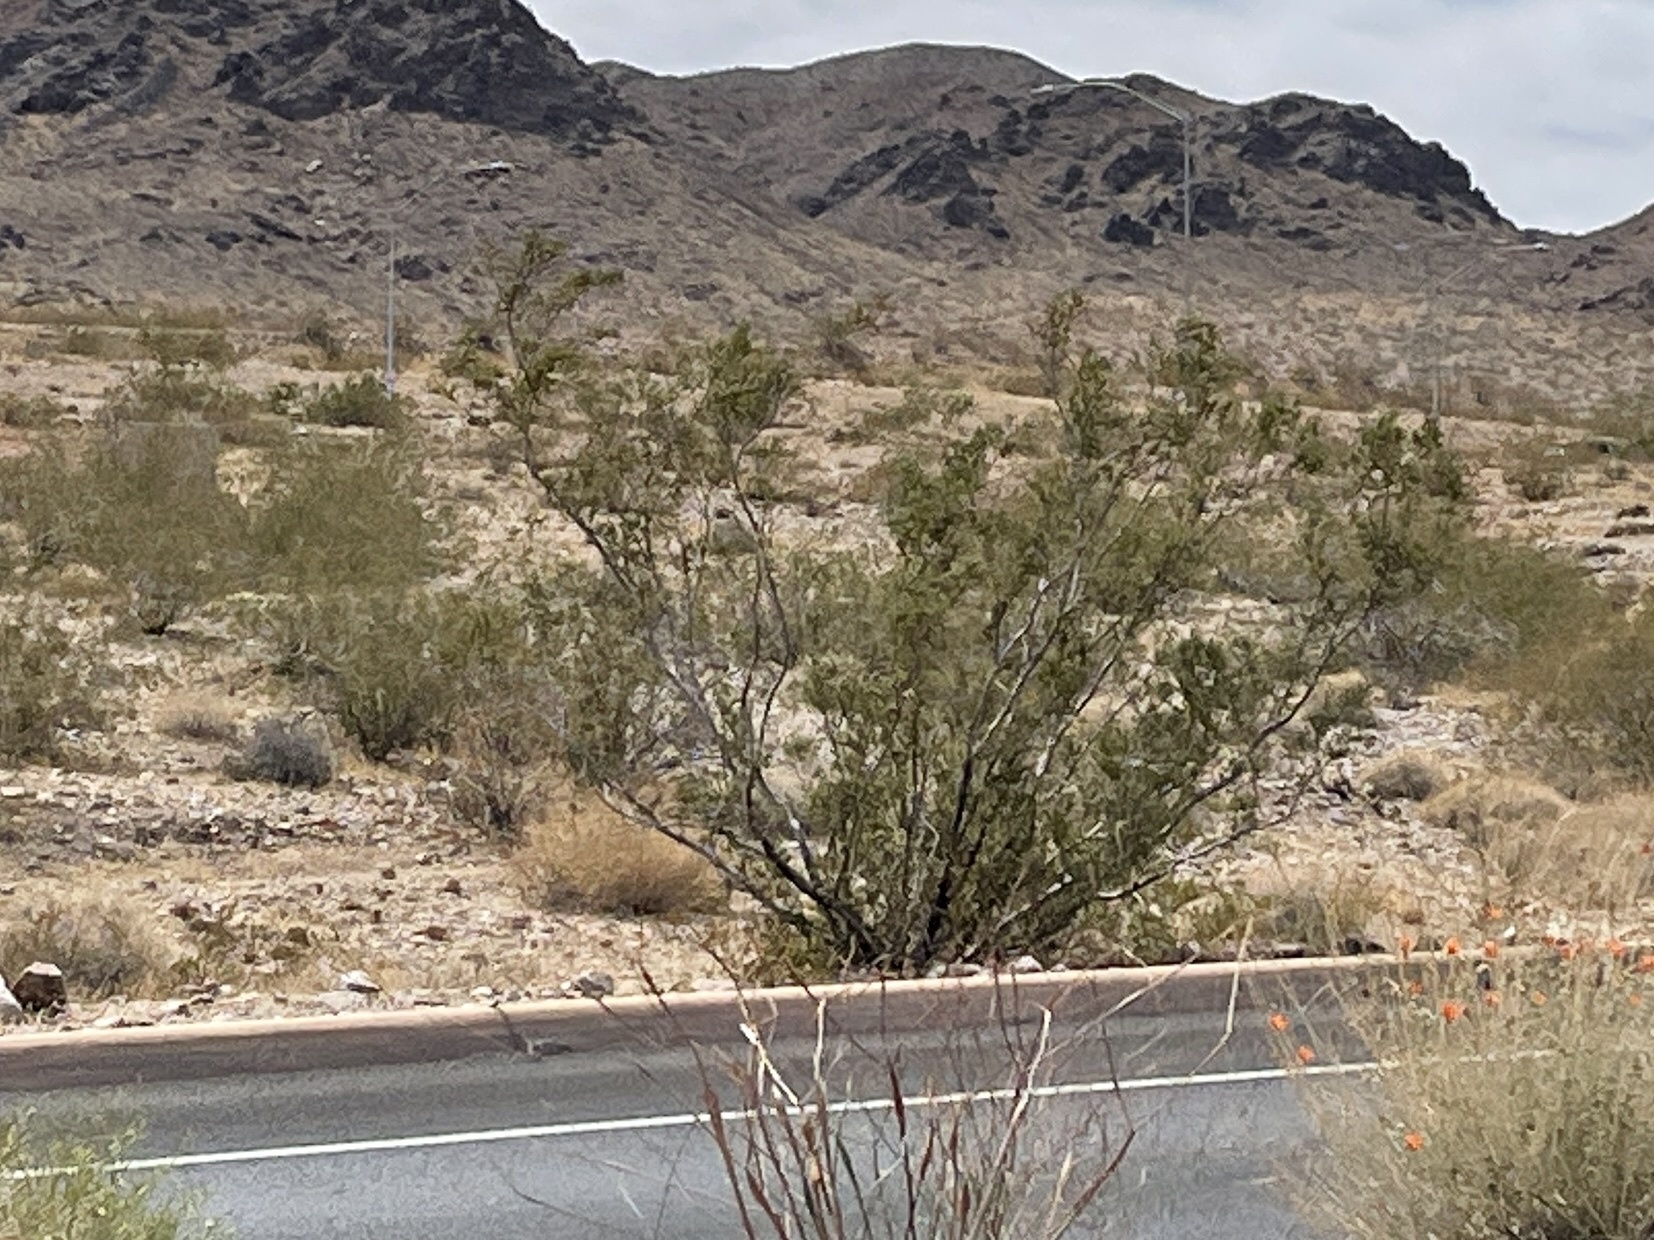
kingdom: Plantae
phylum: Tracheophyta
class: Magnoliopsida
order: Zygophyllales
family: Zygophyllaceae
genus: Larrea
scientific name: Larrea tridentata
